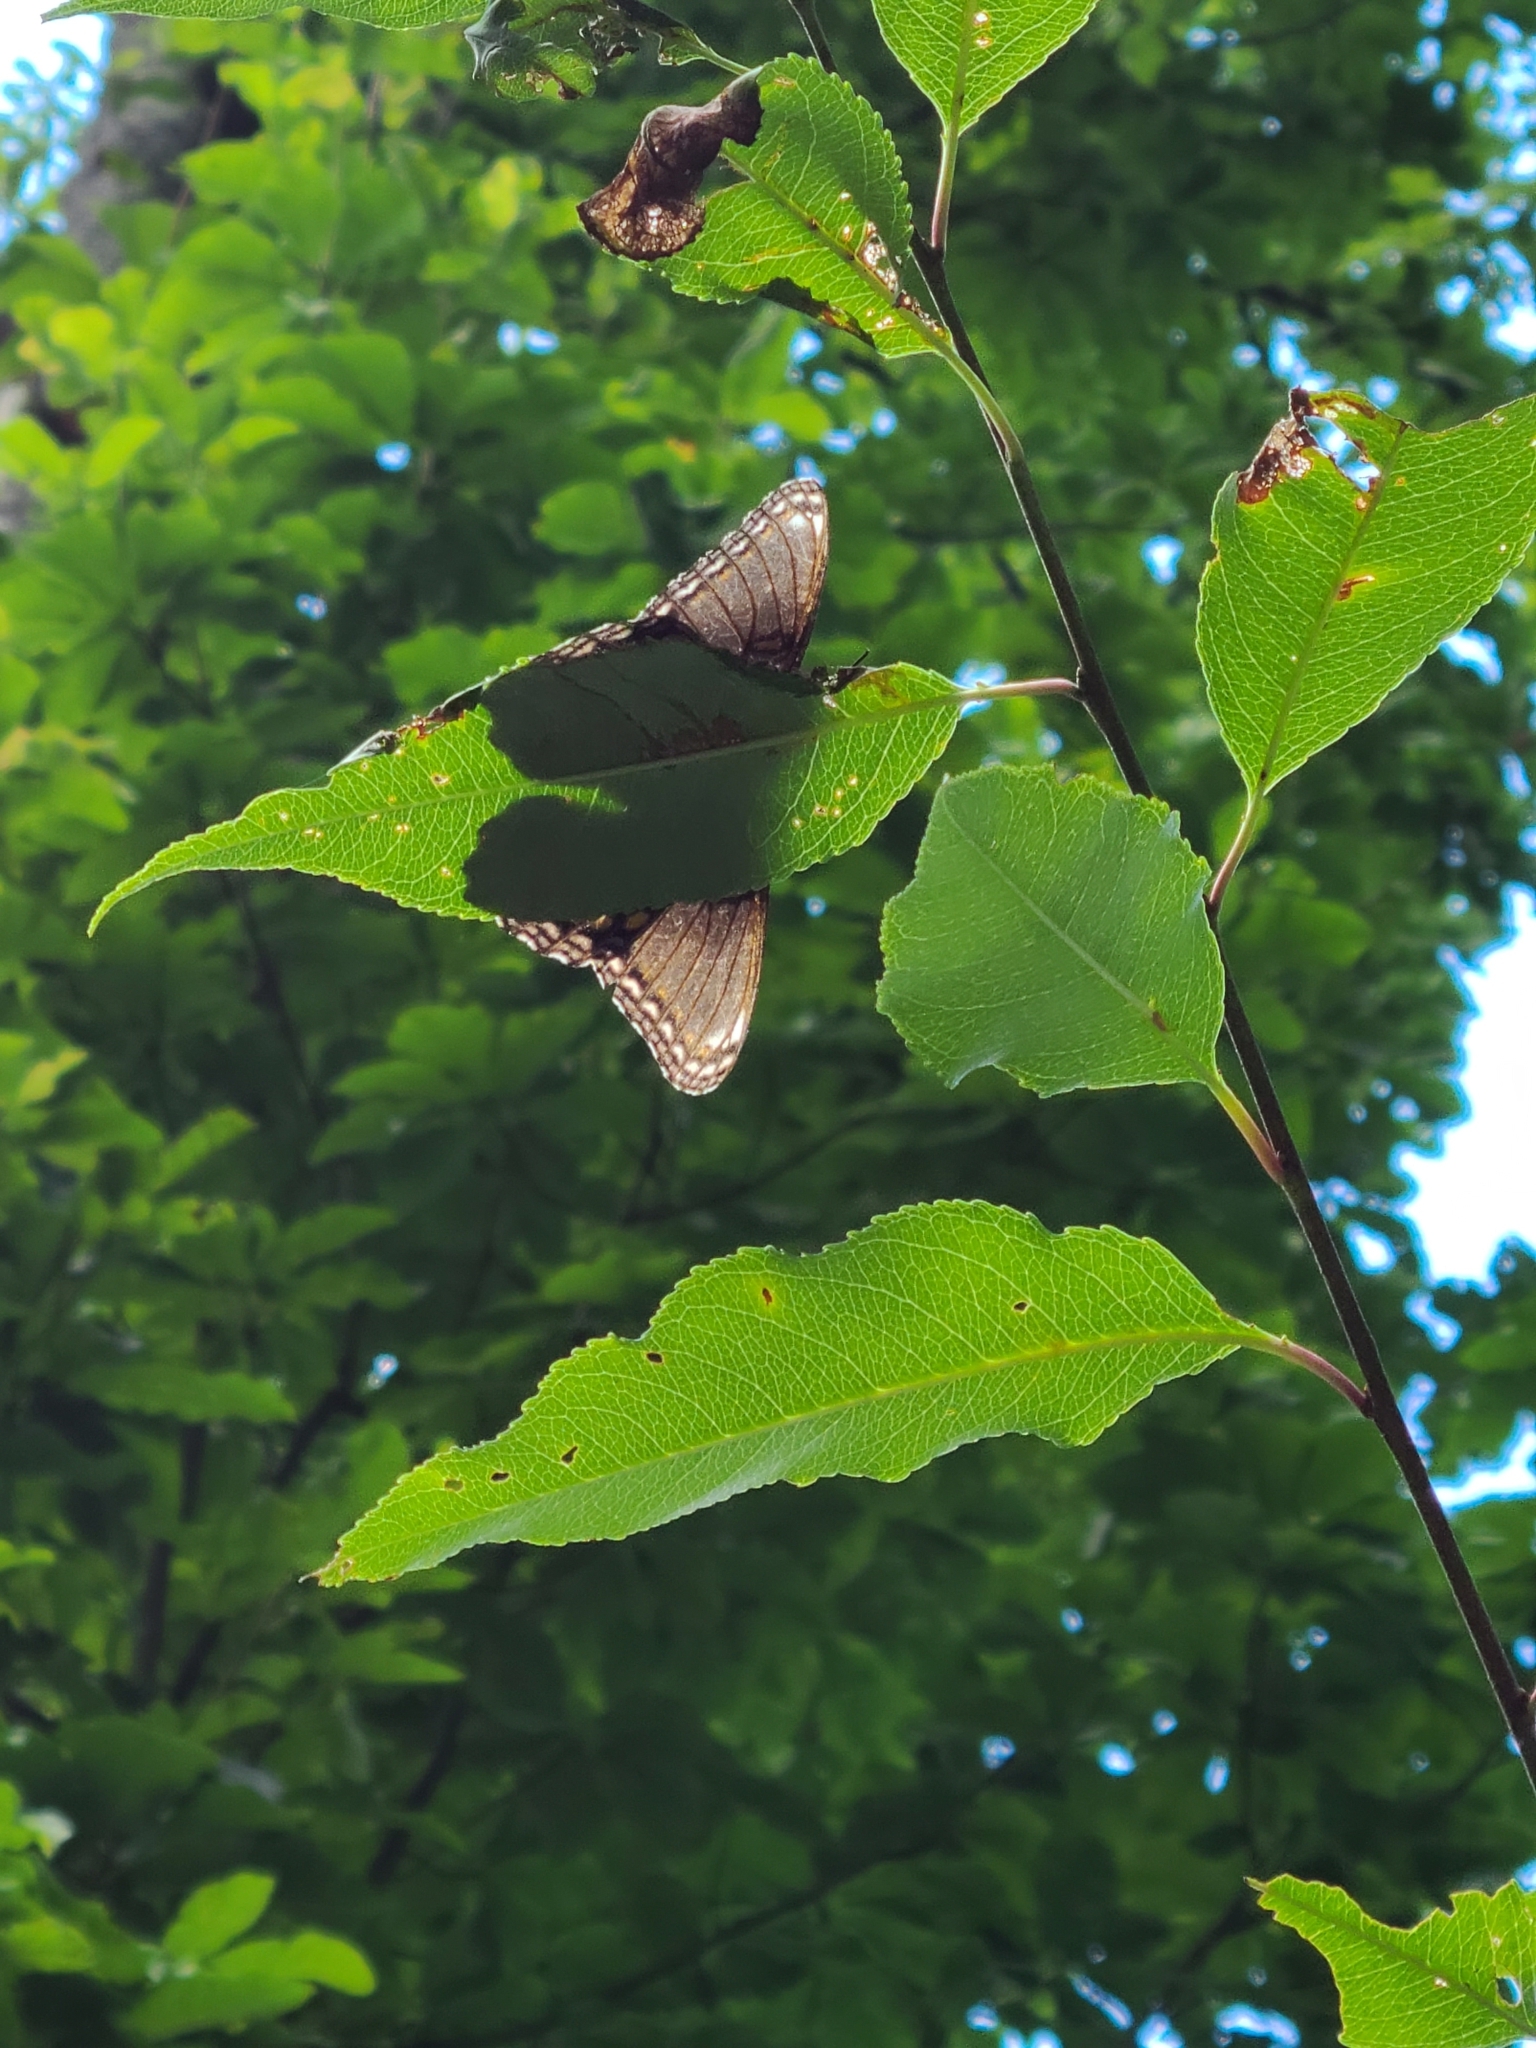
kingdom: Animalia
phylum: Arthropoda
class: Insecta
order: Lepidoptera
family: Nymphalidae
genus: Limenitis
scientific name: Limenitis astyanax
